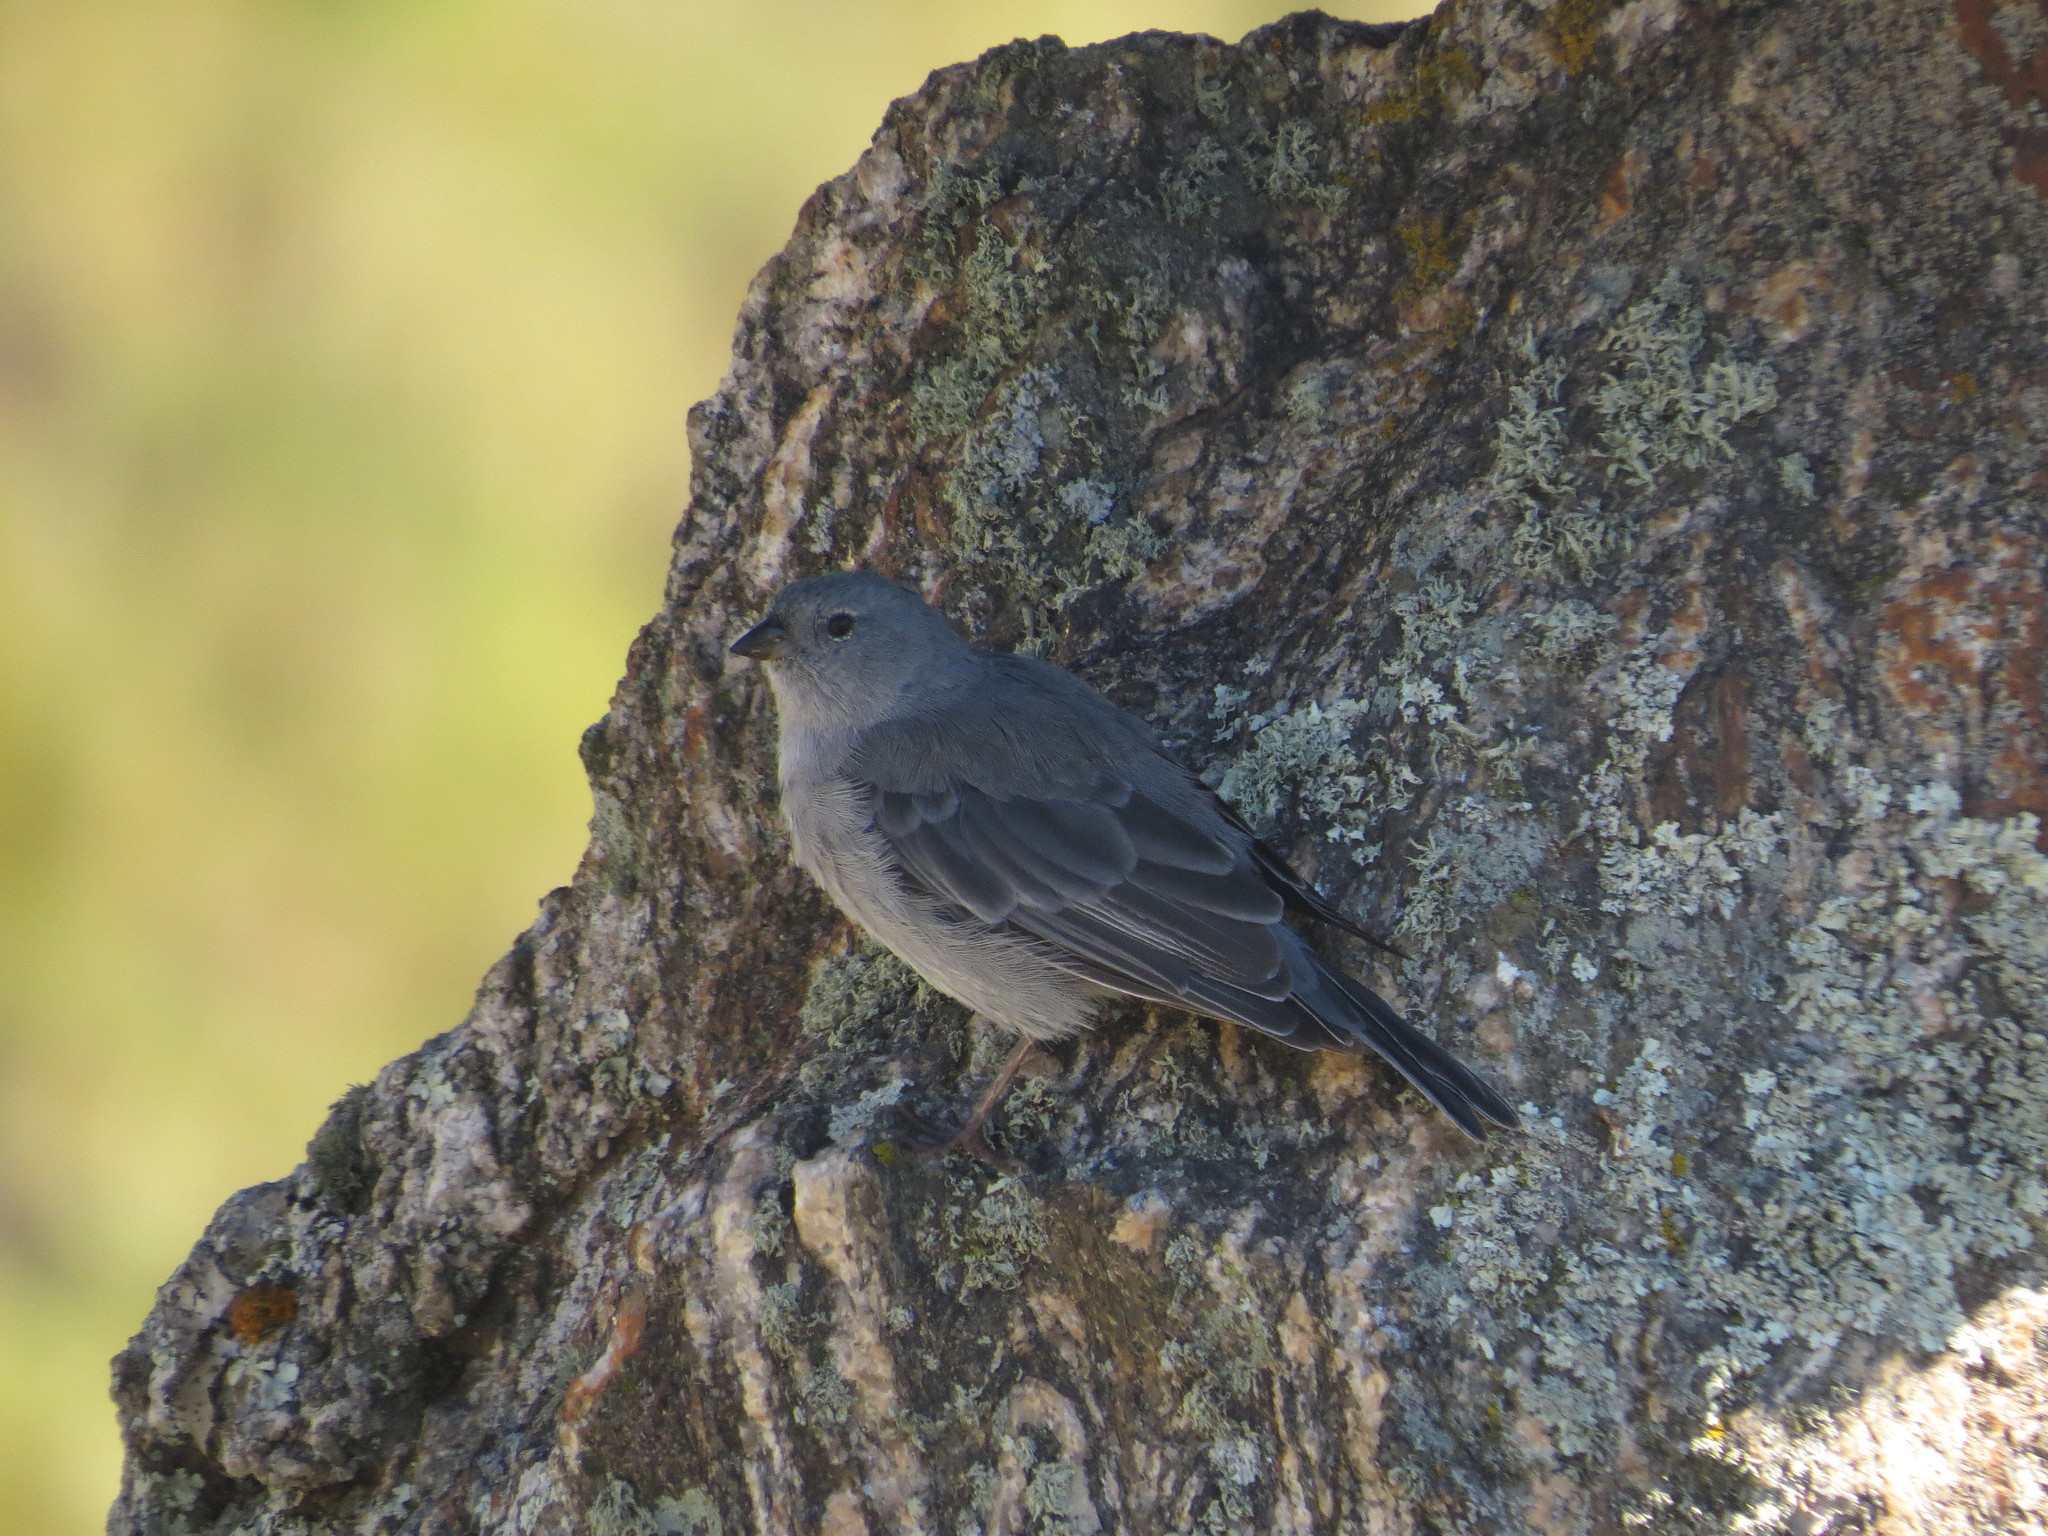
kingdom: Animalia
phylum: Chordata
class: Aves
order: Passeriformes
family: Thraupidae
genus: Geospizopsis
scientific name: Geospizopsis unicolor
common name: Plumbeous sierra-finch
